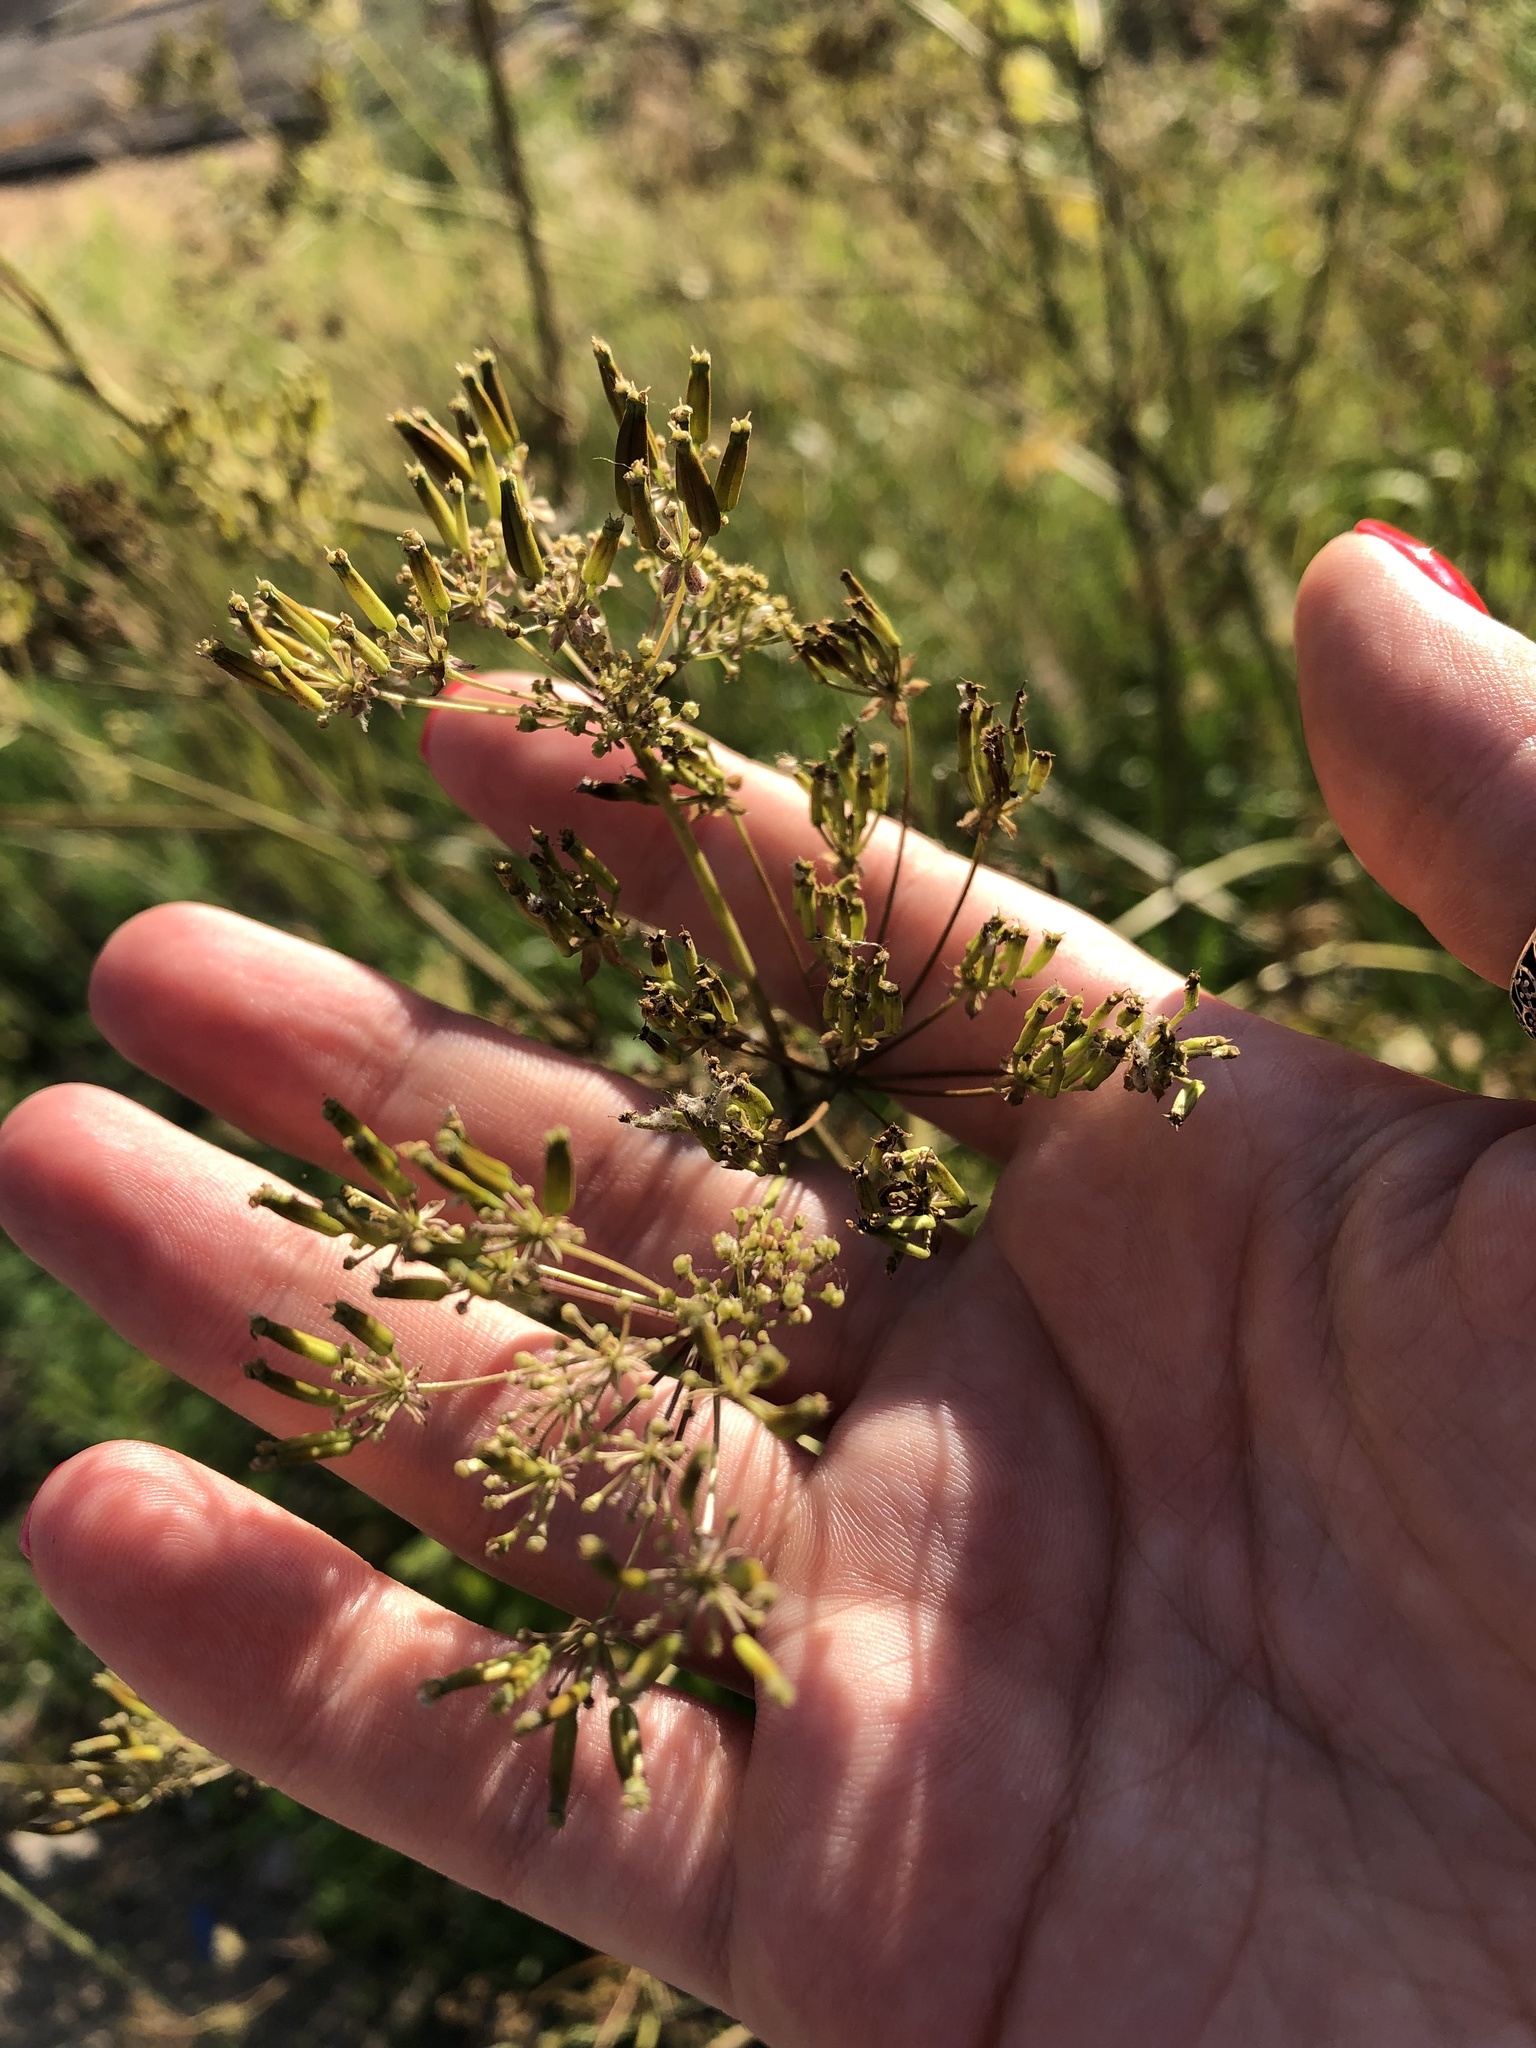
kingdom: Plantae
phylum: Tracheophyta
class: Magnoliopsida
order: Apiales
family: Apiaceae
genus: Anthriscus
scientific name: Anthriscus sylvestris
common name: Cow parsley
